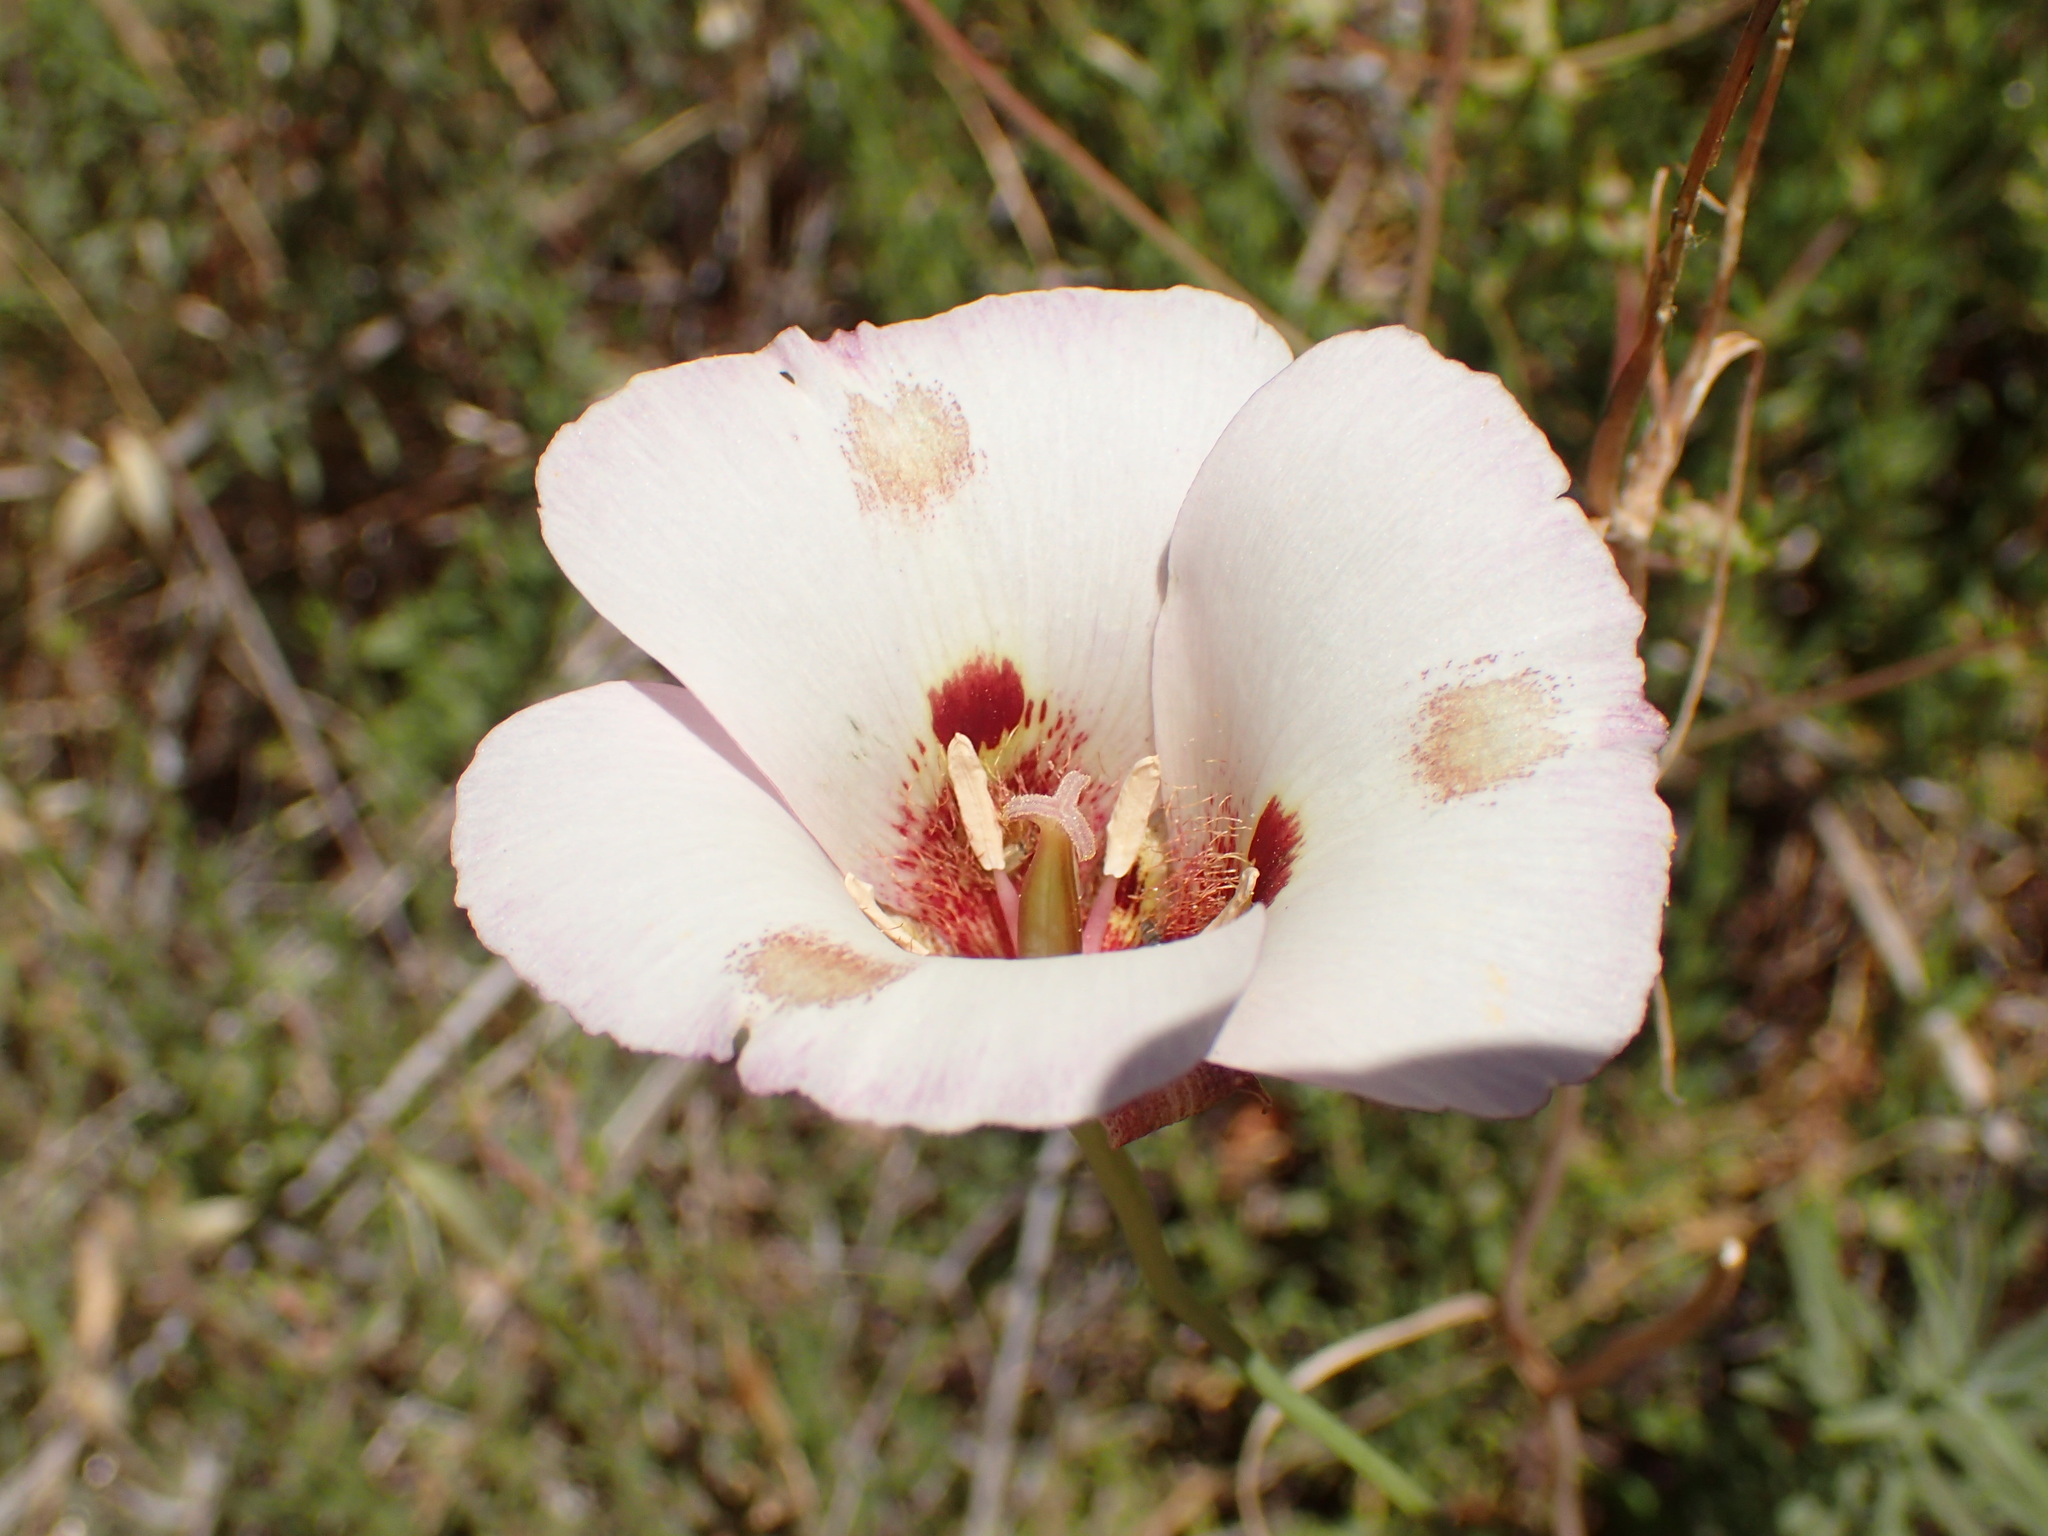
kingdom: Plantae
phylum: Tracheophyta
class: Liliopsida
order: Liliales
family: Liliaceae
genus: Calochortus
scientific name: Calochortus venustus
